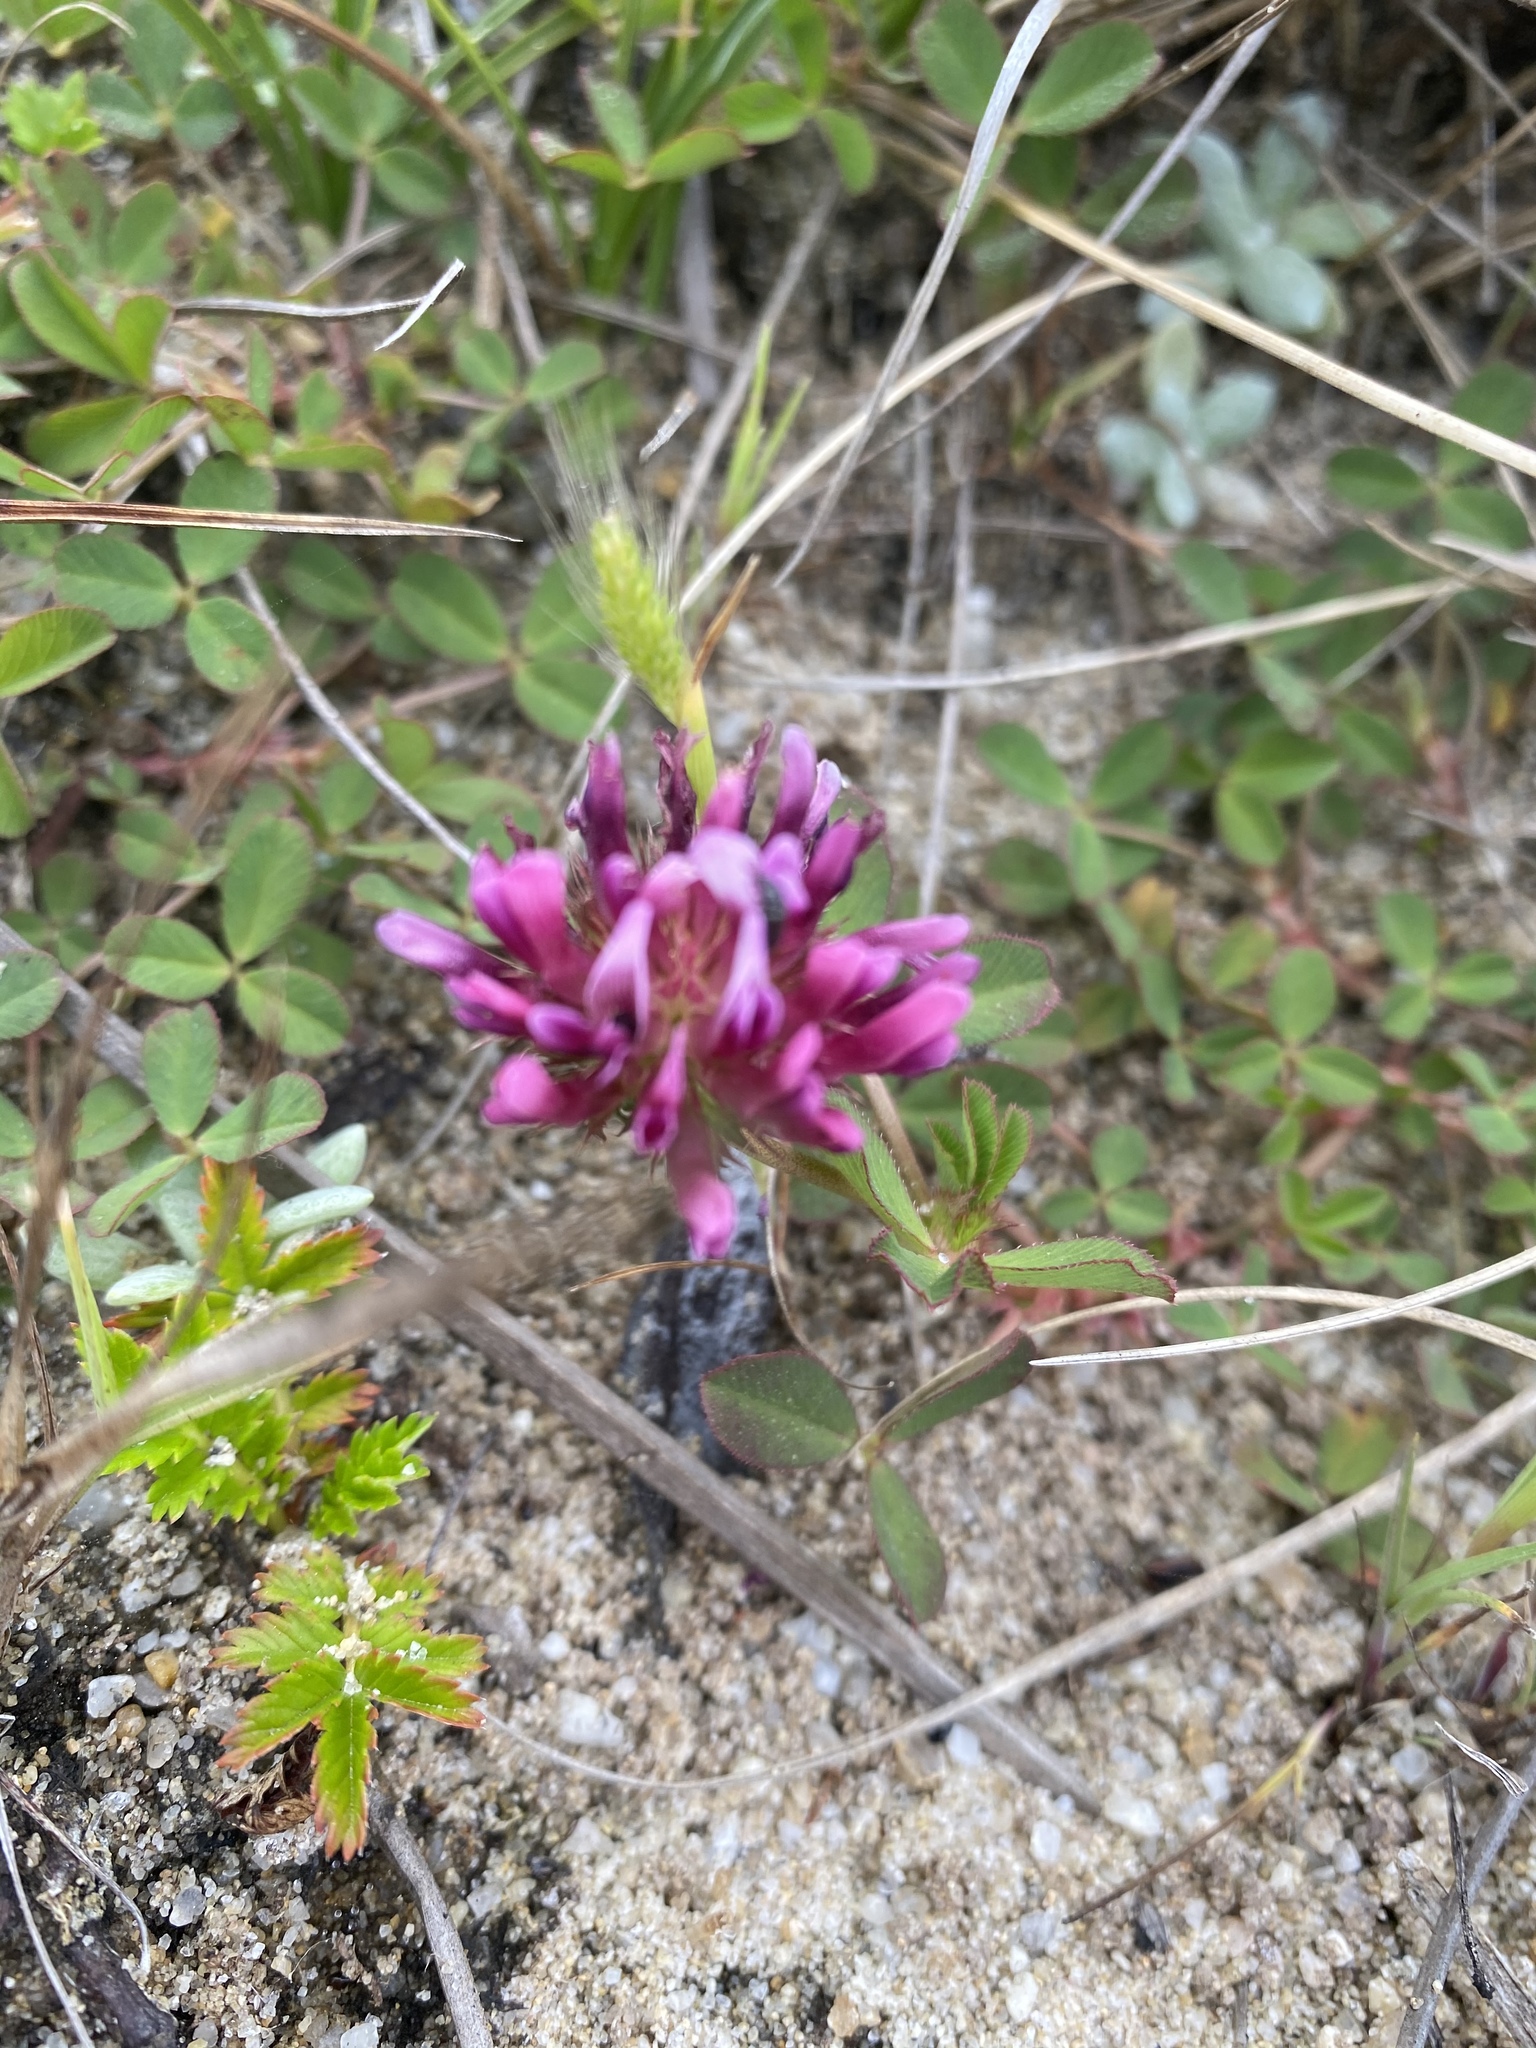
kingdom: Plantae
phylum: Tracheophyta
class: Magnoliopsida
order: Fabales
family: Fabaceae
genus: Trifolium
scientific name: Trifolium wormskioldii
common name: Springbank clover
